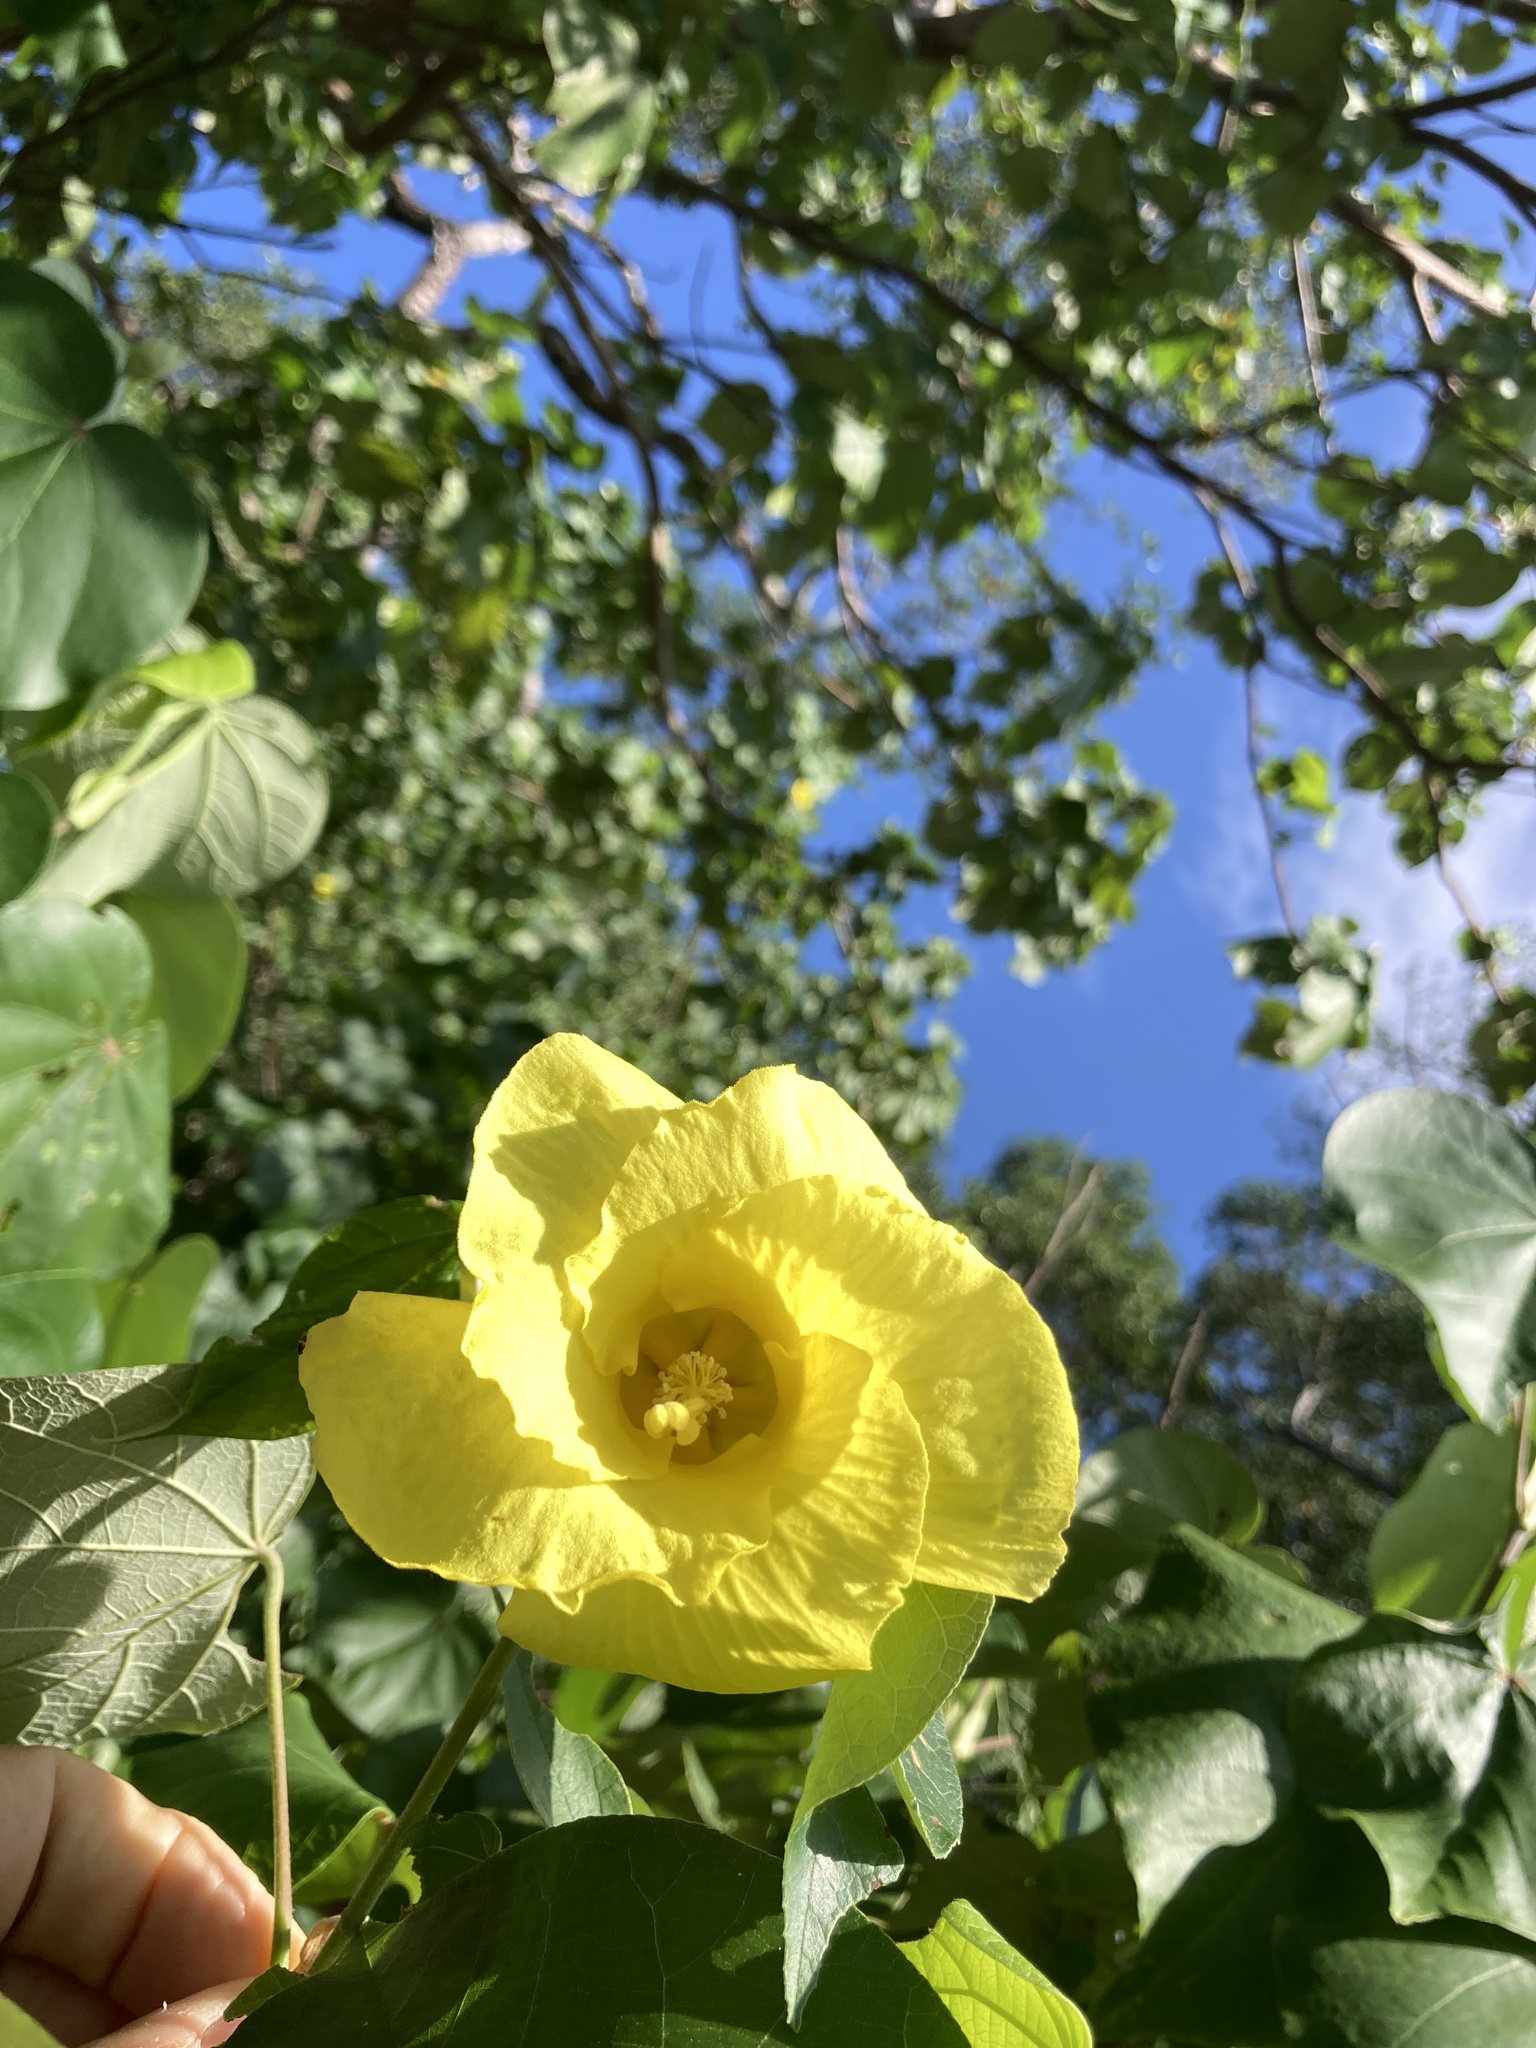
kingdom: Plantae
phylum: Tracheophyta
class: Magnoliopsida
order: Malvales
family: Malvaceae
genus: Talipariti
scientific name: Talipariti tiliaceum
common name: Sea hibiscus
